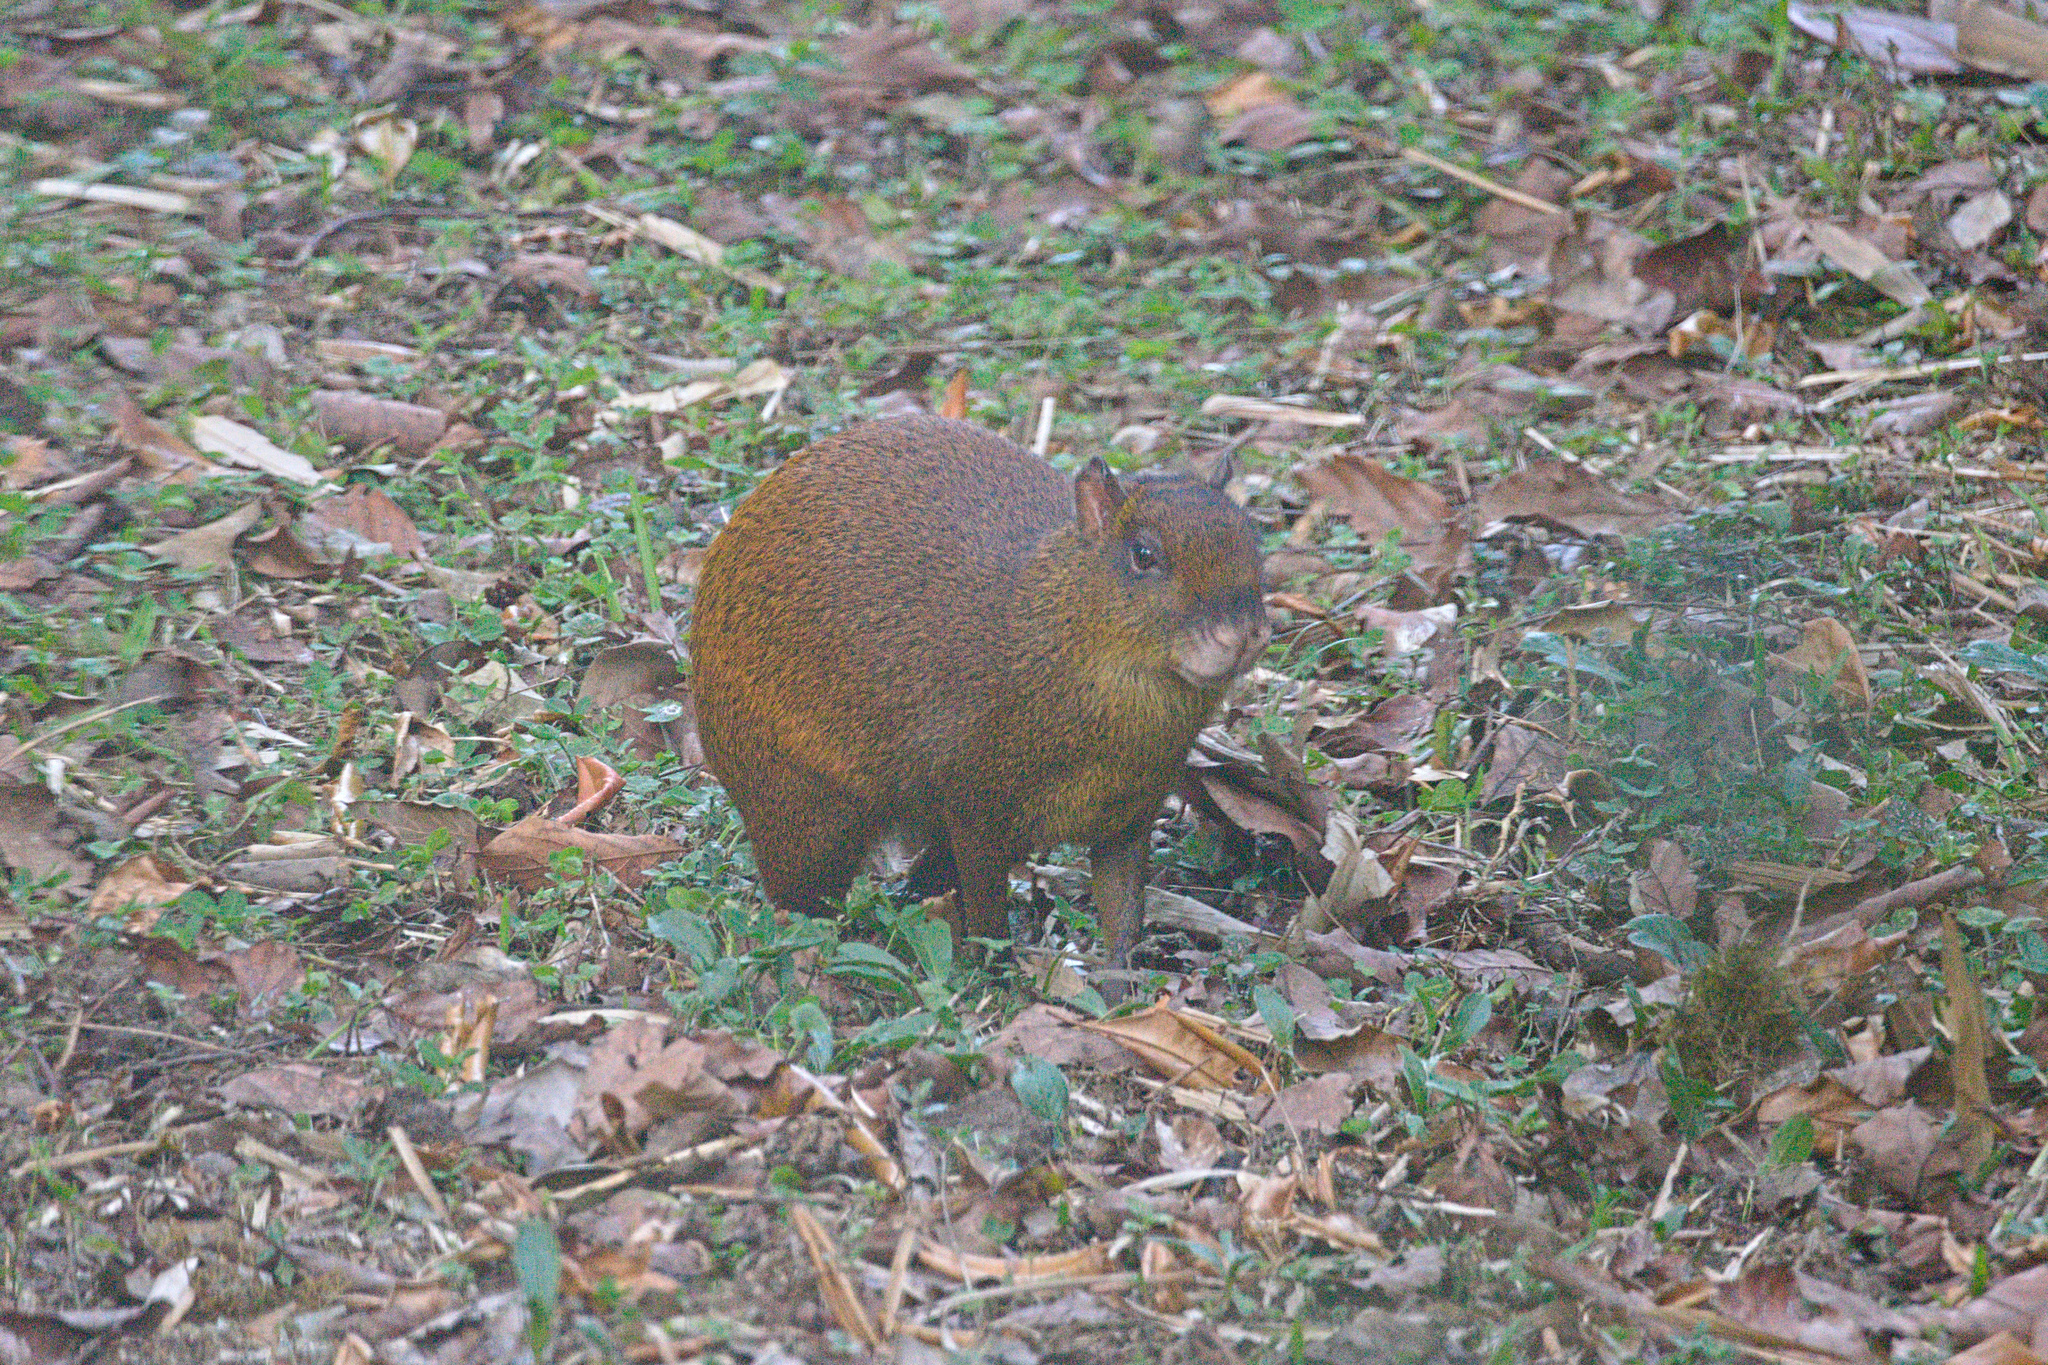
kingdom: Animalia
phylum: Chordata
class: Mammalia
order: Rodentia
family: Dasyproctidae
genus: Dasyprocta
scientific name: Dasyprocta punctata
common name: Central american agouti
